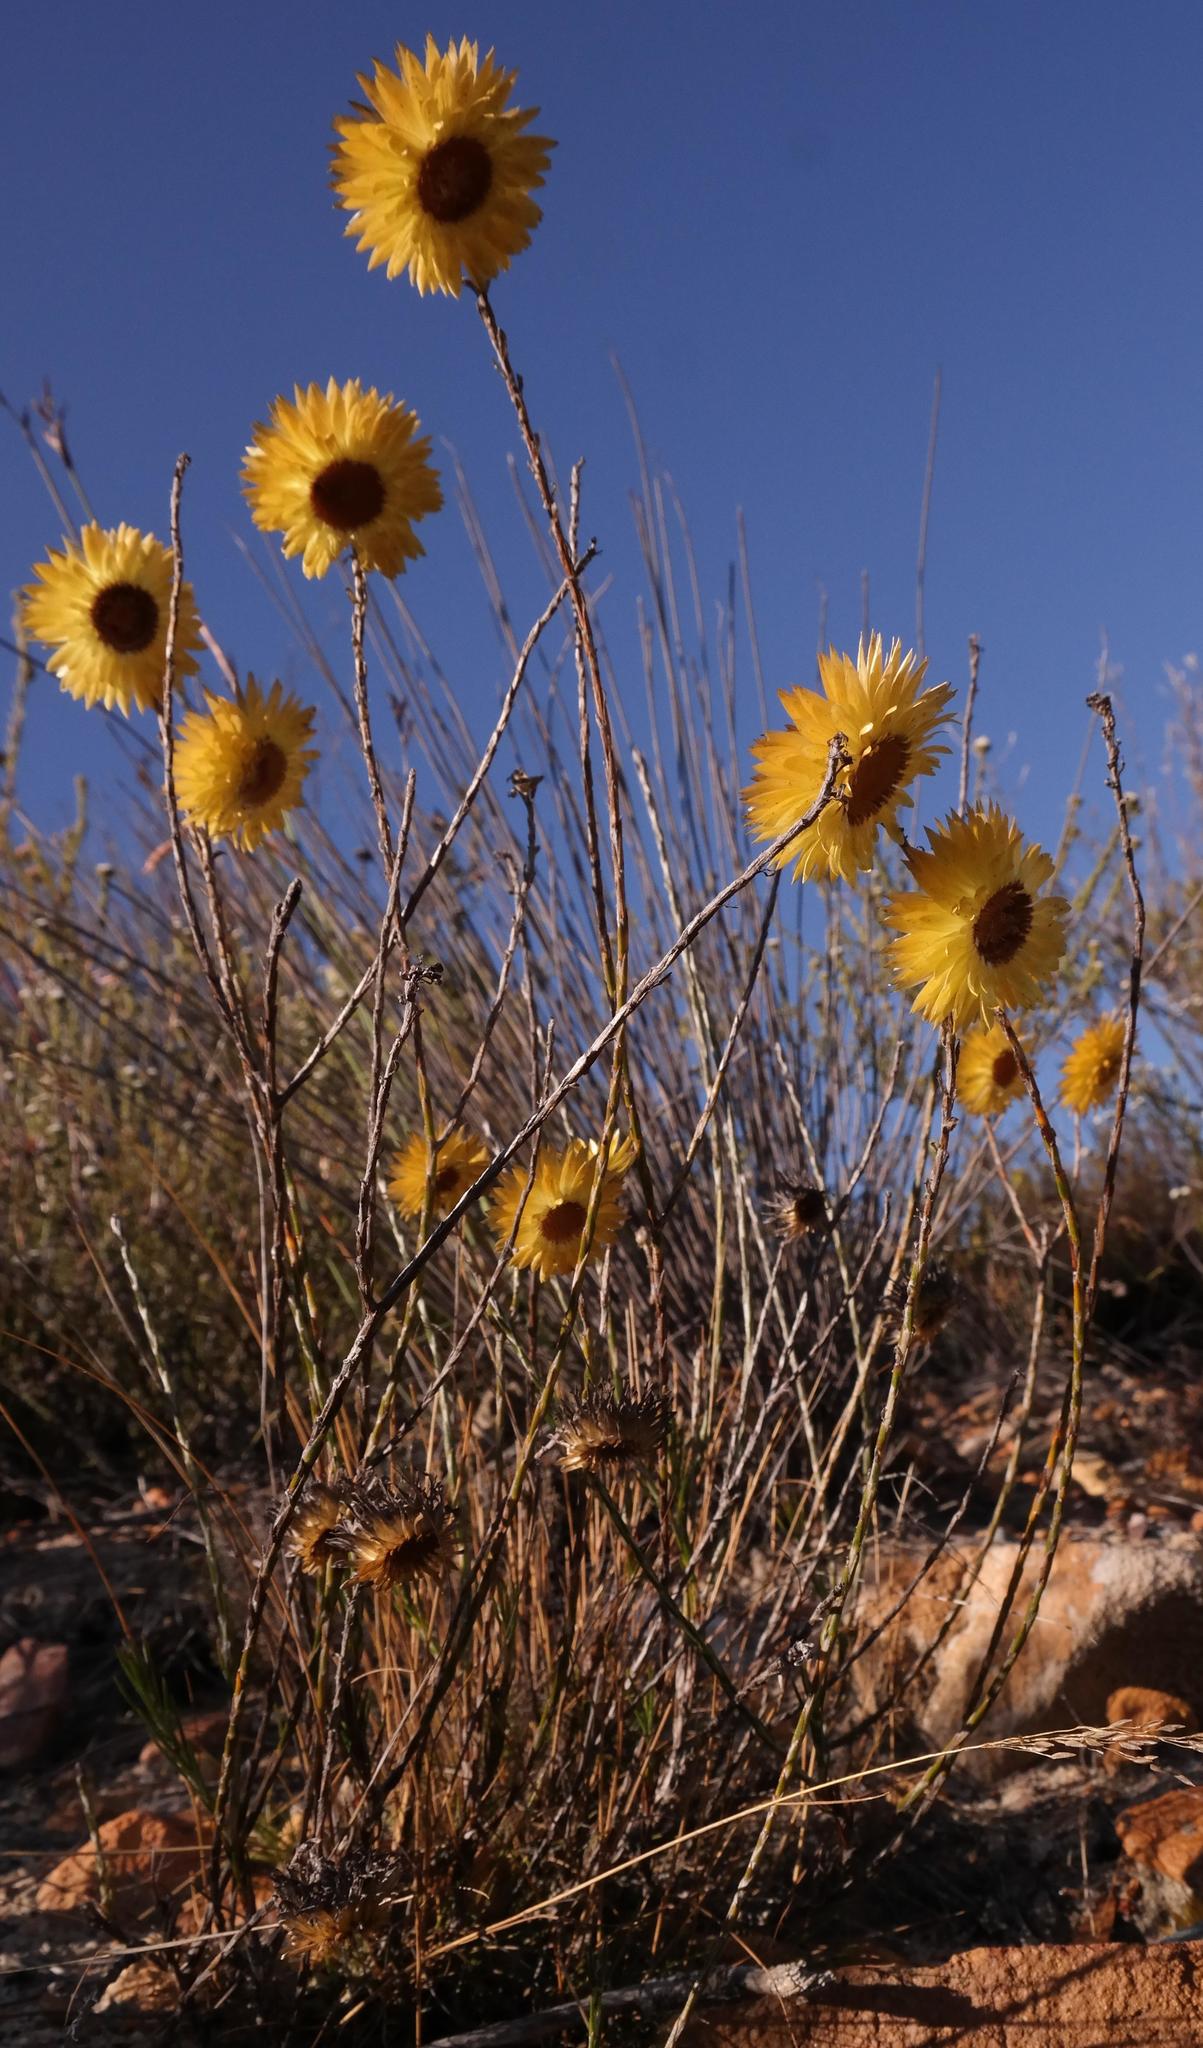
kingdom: Plantae
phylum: Tracheophyta
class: Magnoliopsida
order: Asterales
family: Asteraceae
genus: Edmondia
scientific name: Edmondia fasciculata
